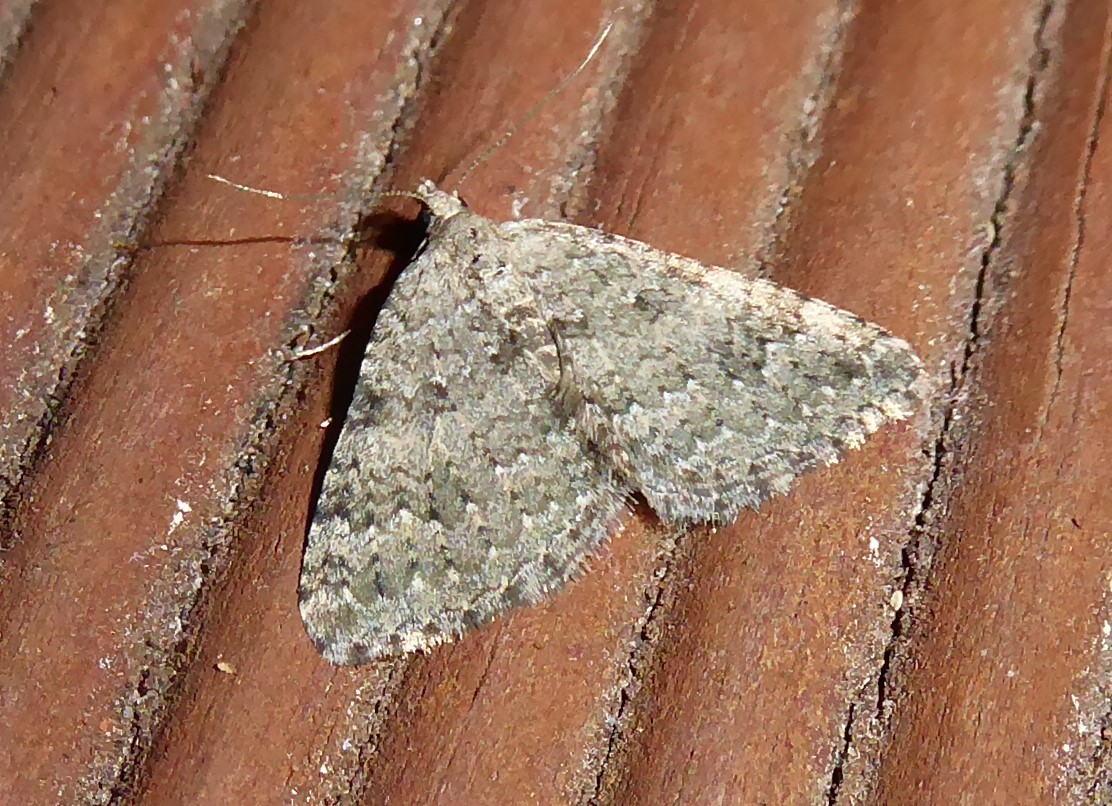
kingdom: Animalia
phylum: Arthropoda
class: Insecta
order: Lepidoptera
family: Geometridae
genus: Helastia
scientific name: Helastia corcularia
